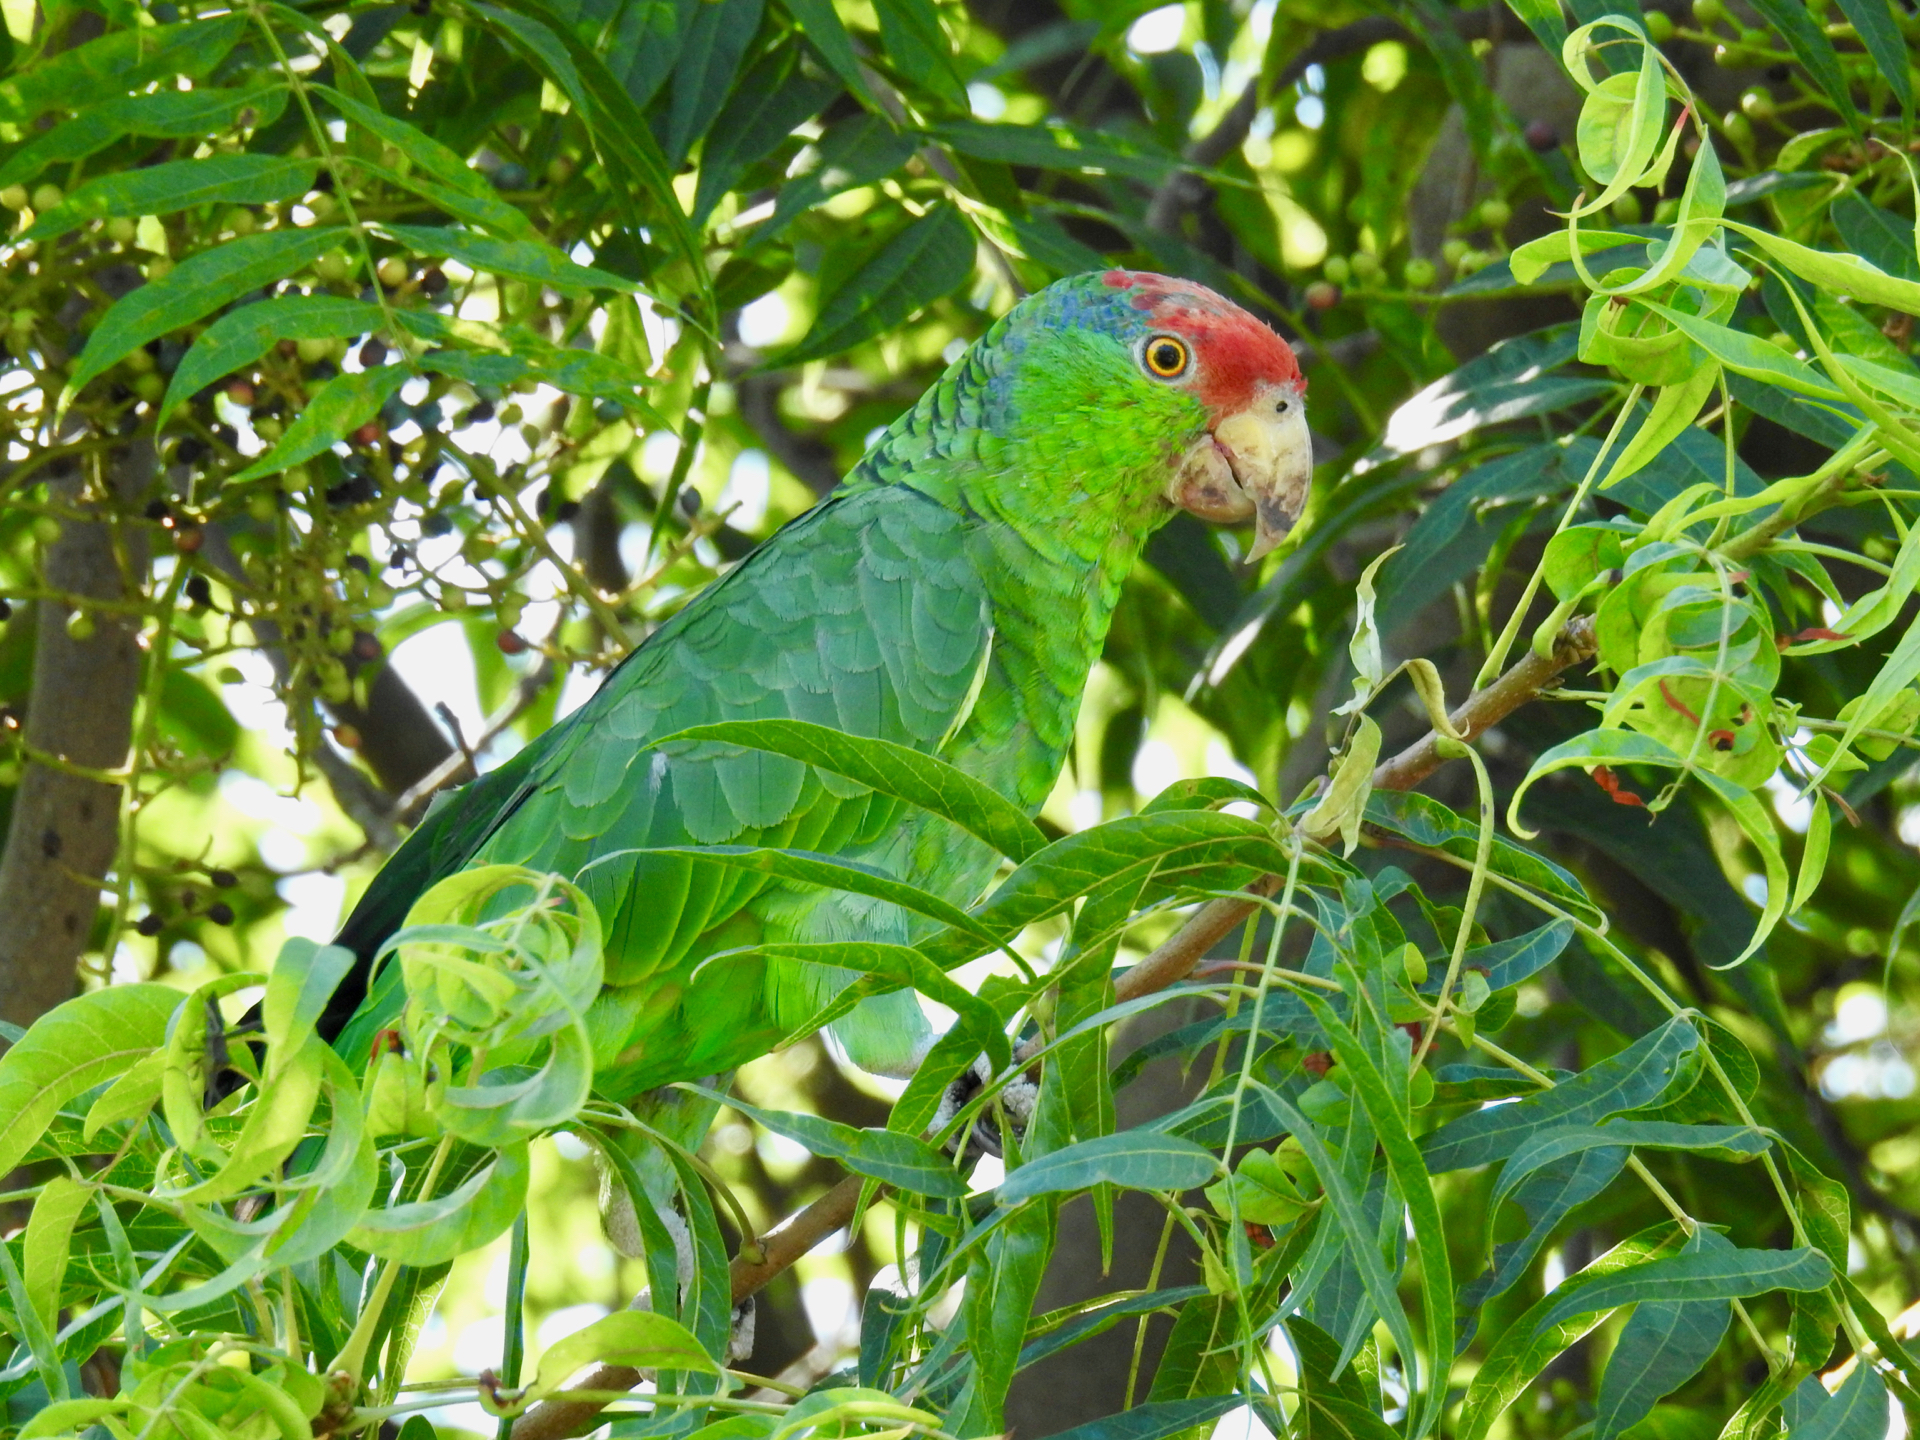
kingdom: Animalia
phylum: Chordata
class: Aves
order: Psittaciformes
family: Psittacidae
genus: Amazona
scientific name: Amazona viridigenalis
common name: Red-crowned amazon
